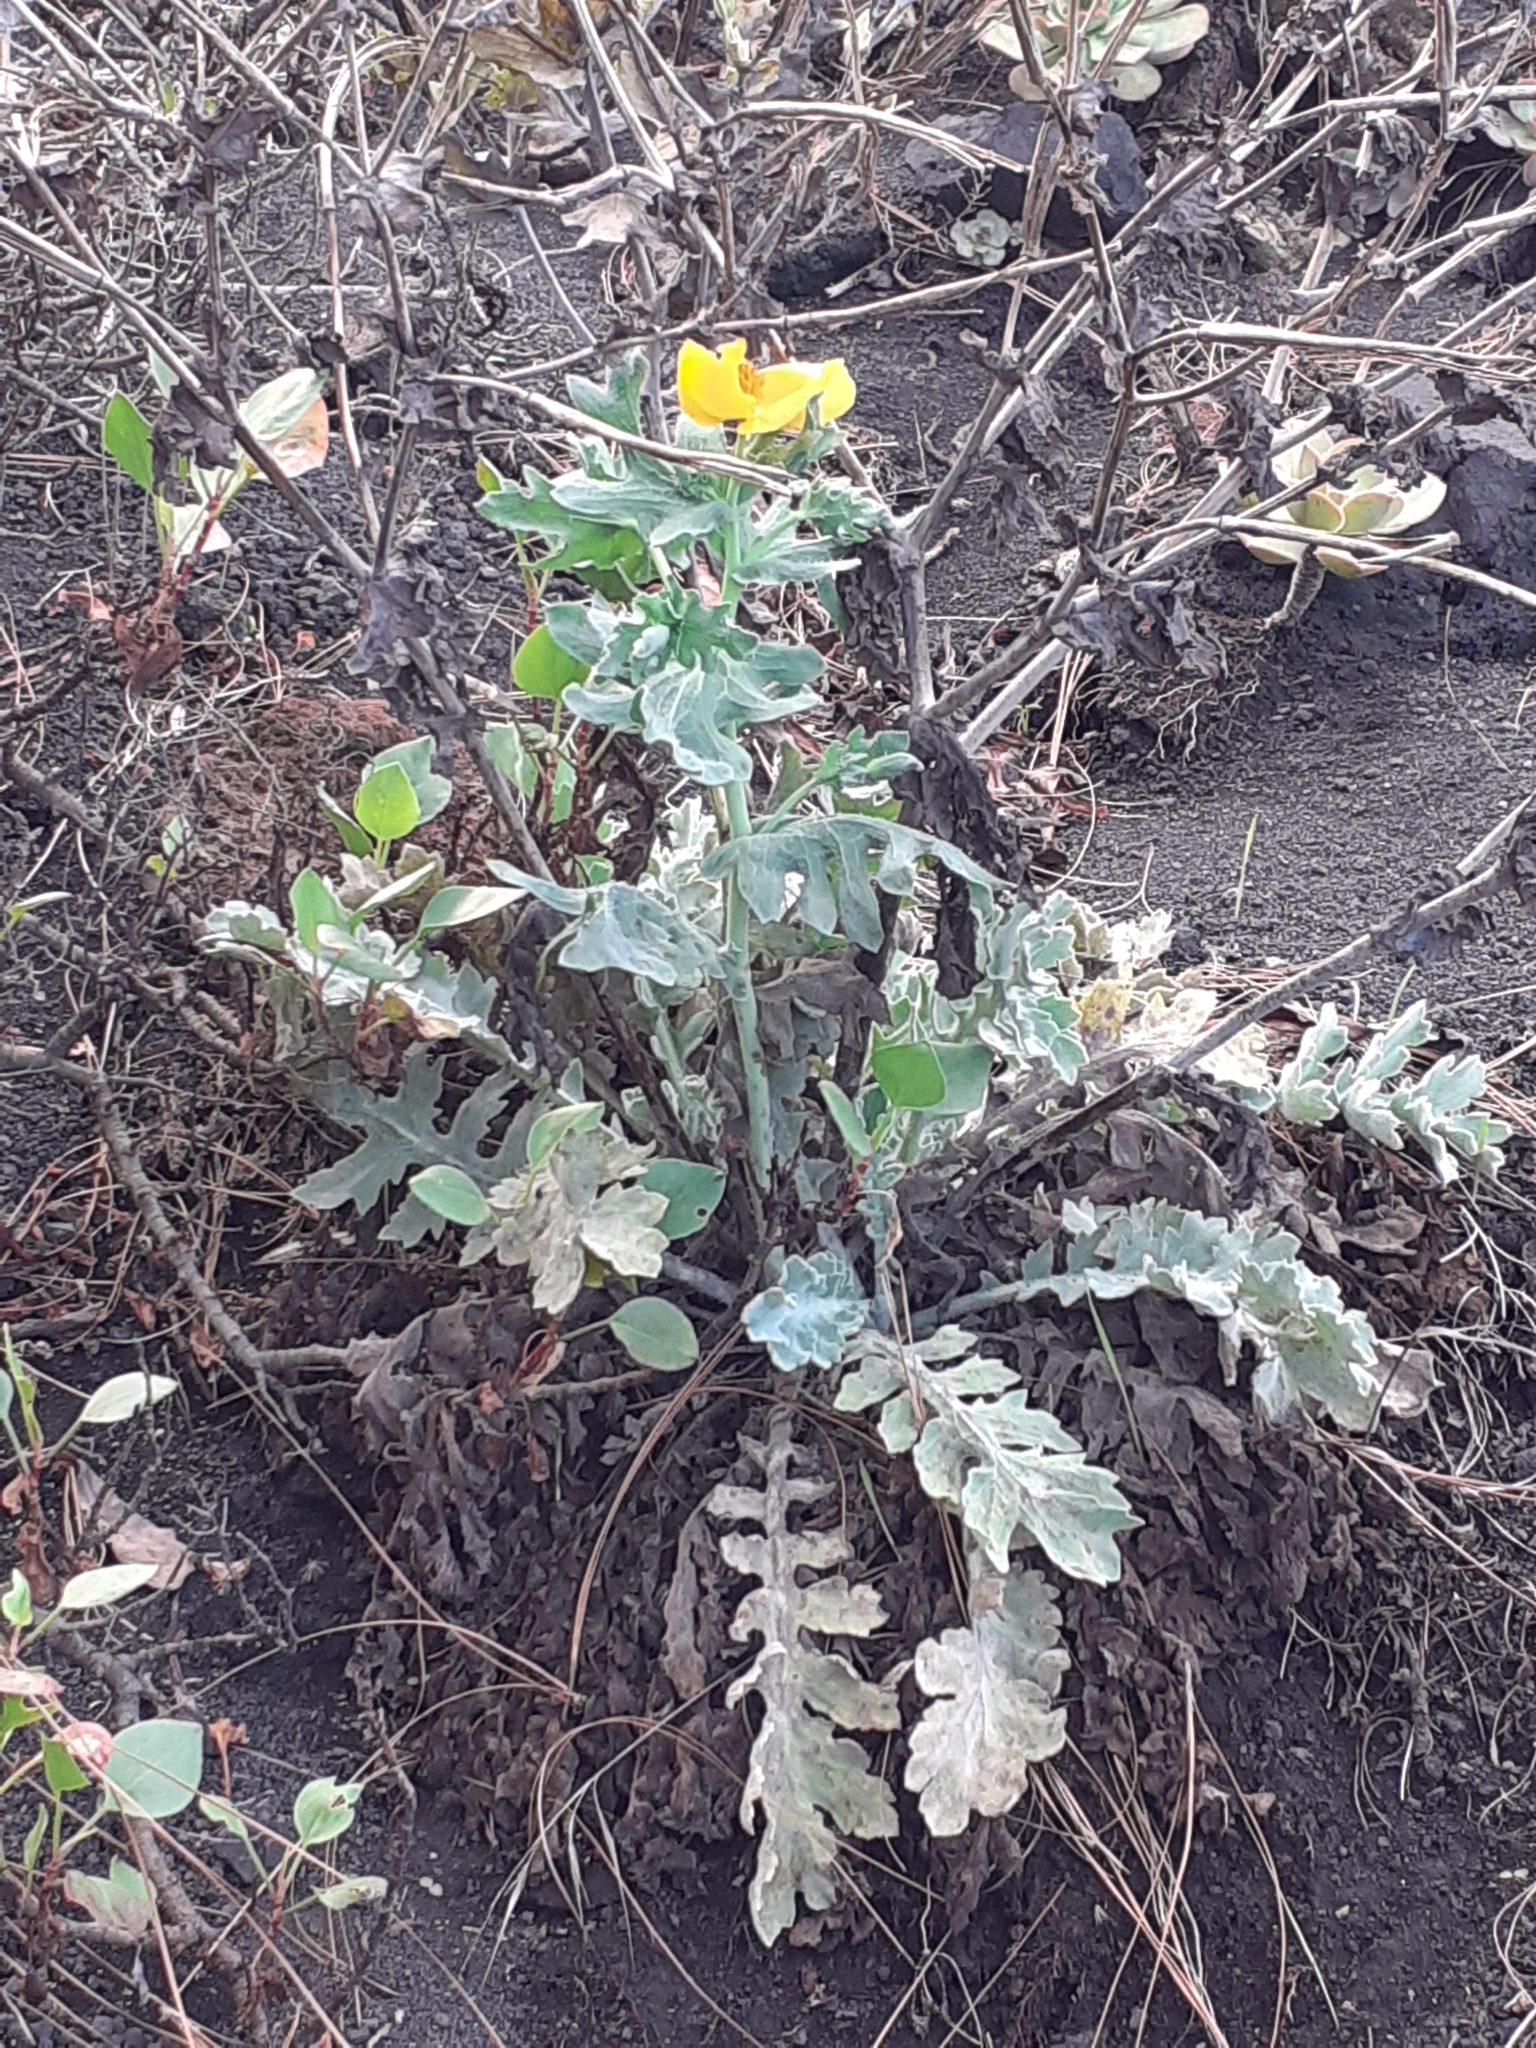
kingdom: Plantae
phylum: Tracheophyta
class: Magnoliopsida
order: Ranunculales
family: Papaveraceae
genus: Glaucium
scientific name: Glaucium flavum
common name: Yellow horned-poppy
